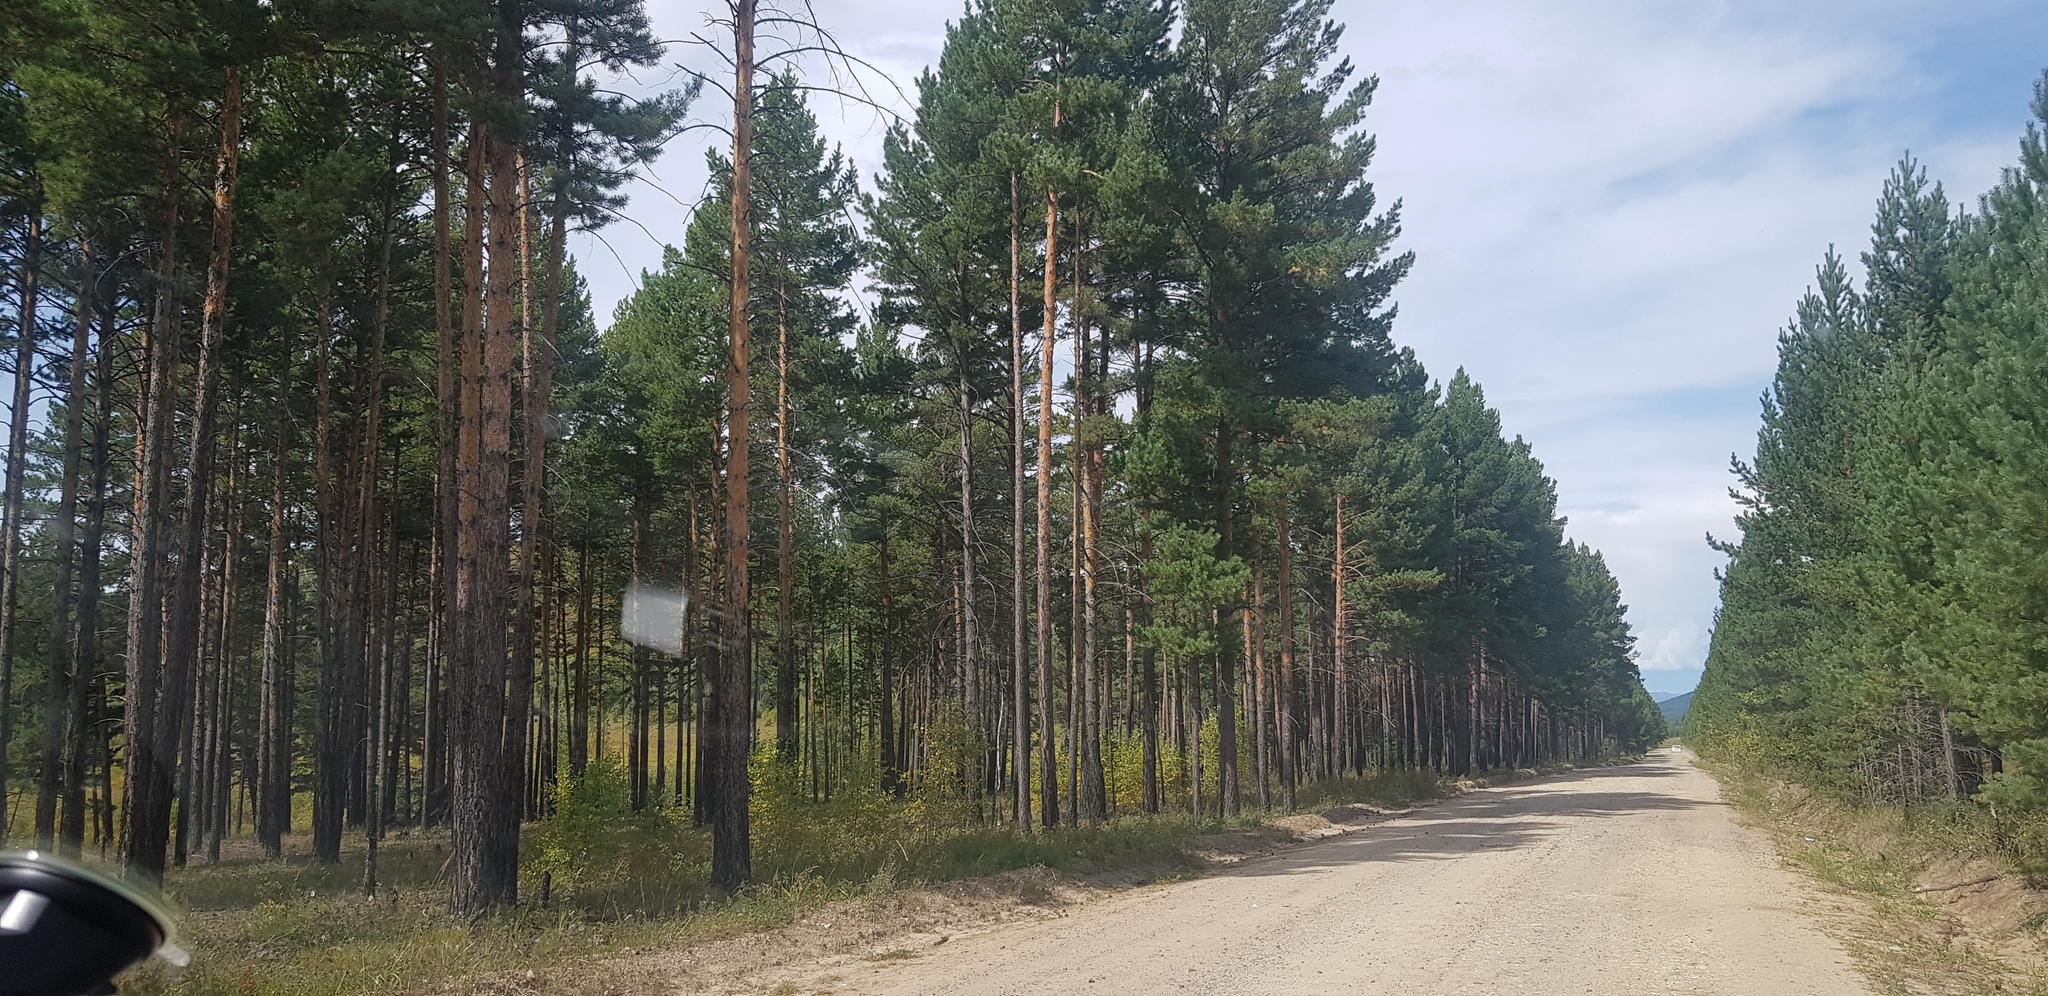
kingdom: Plantae
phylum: Tracheophyta
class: Pinopsida
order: Pinales
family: Pinaceae
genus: Pinus
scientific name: Pinus sylvestris
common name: Scots pine
